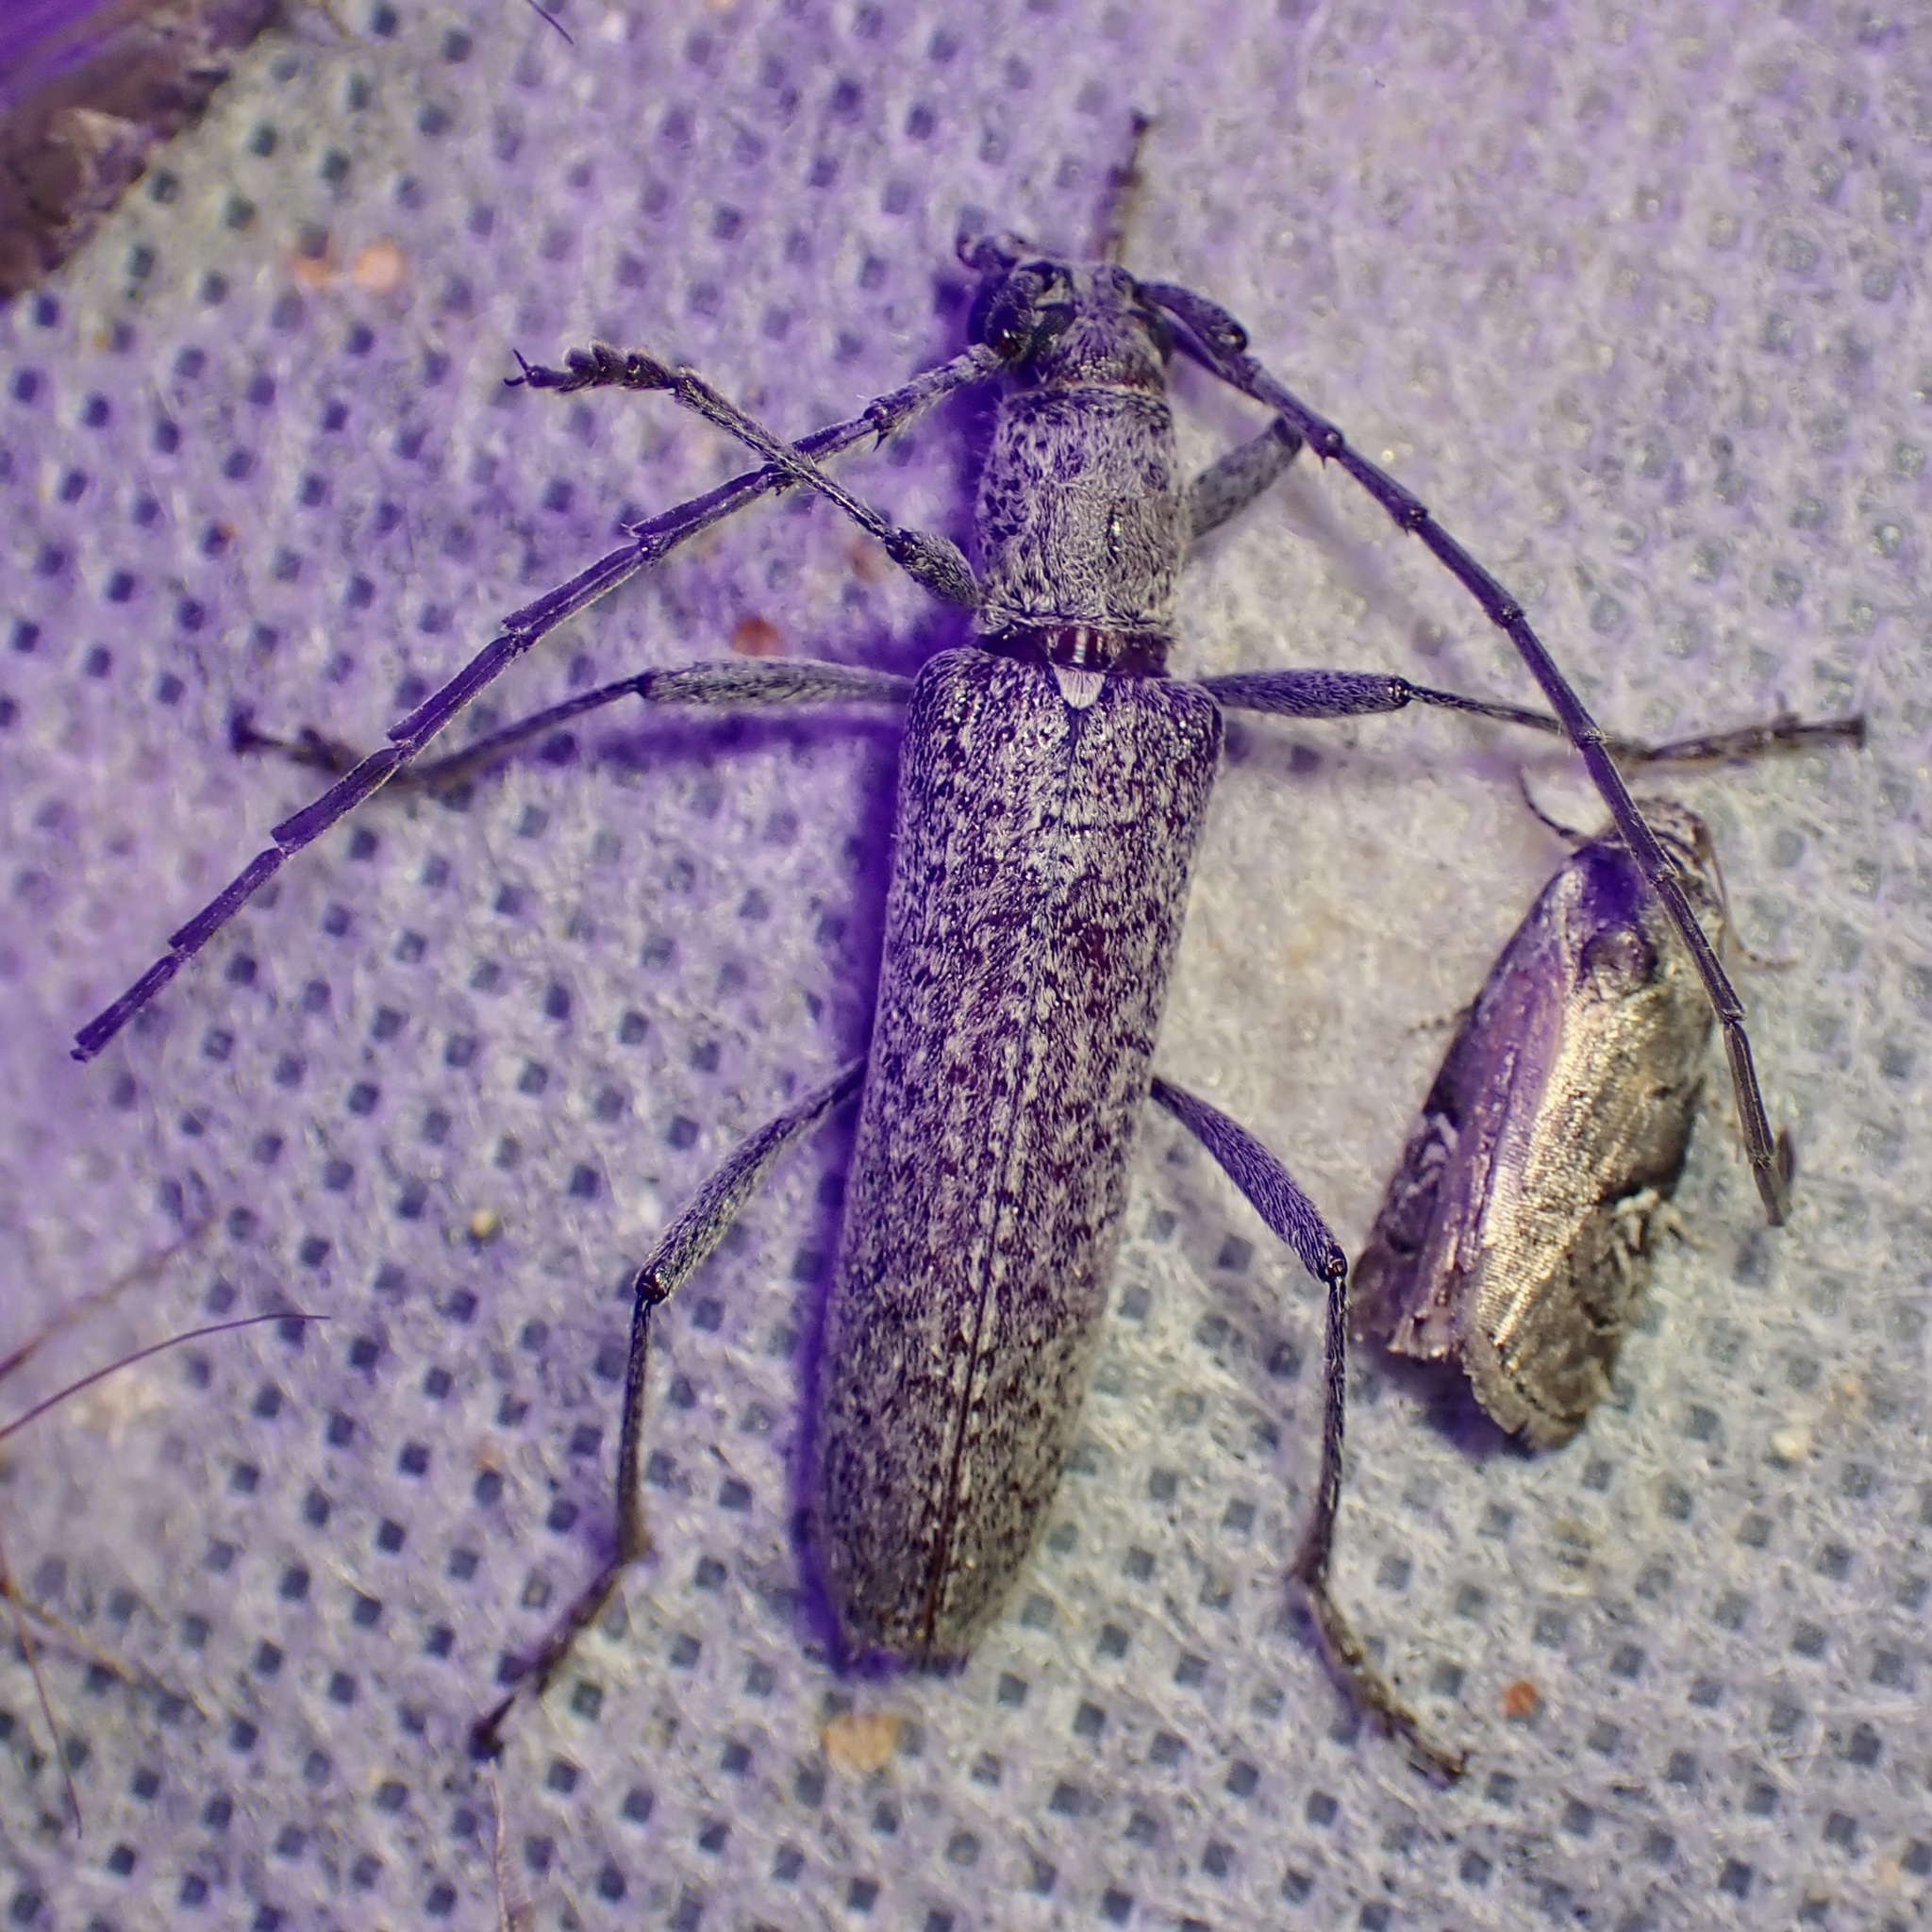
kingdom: Animalia
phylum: Arthropoda
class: Insecta
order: Coleoptera
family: Cerambycidae
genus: Aneflus
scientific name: Aneflus prolixus
